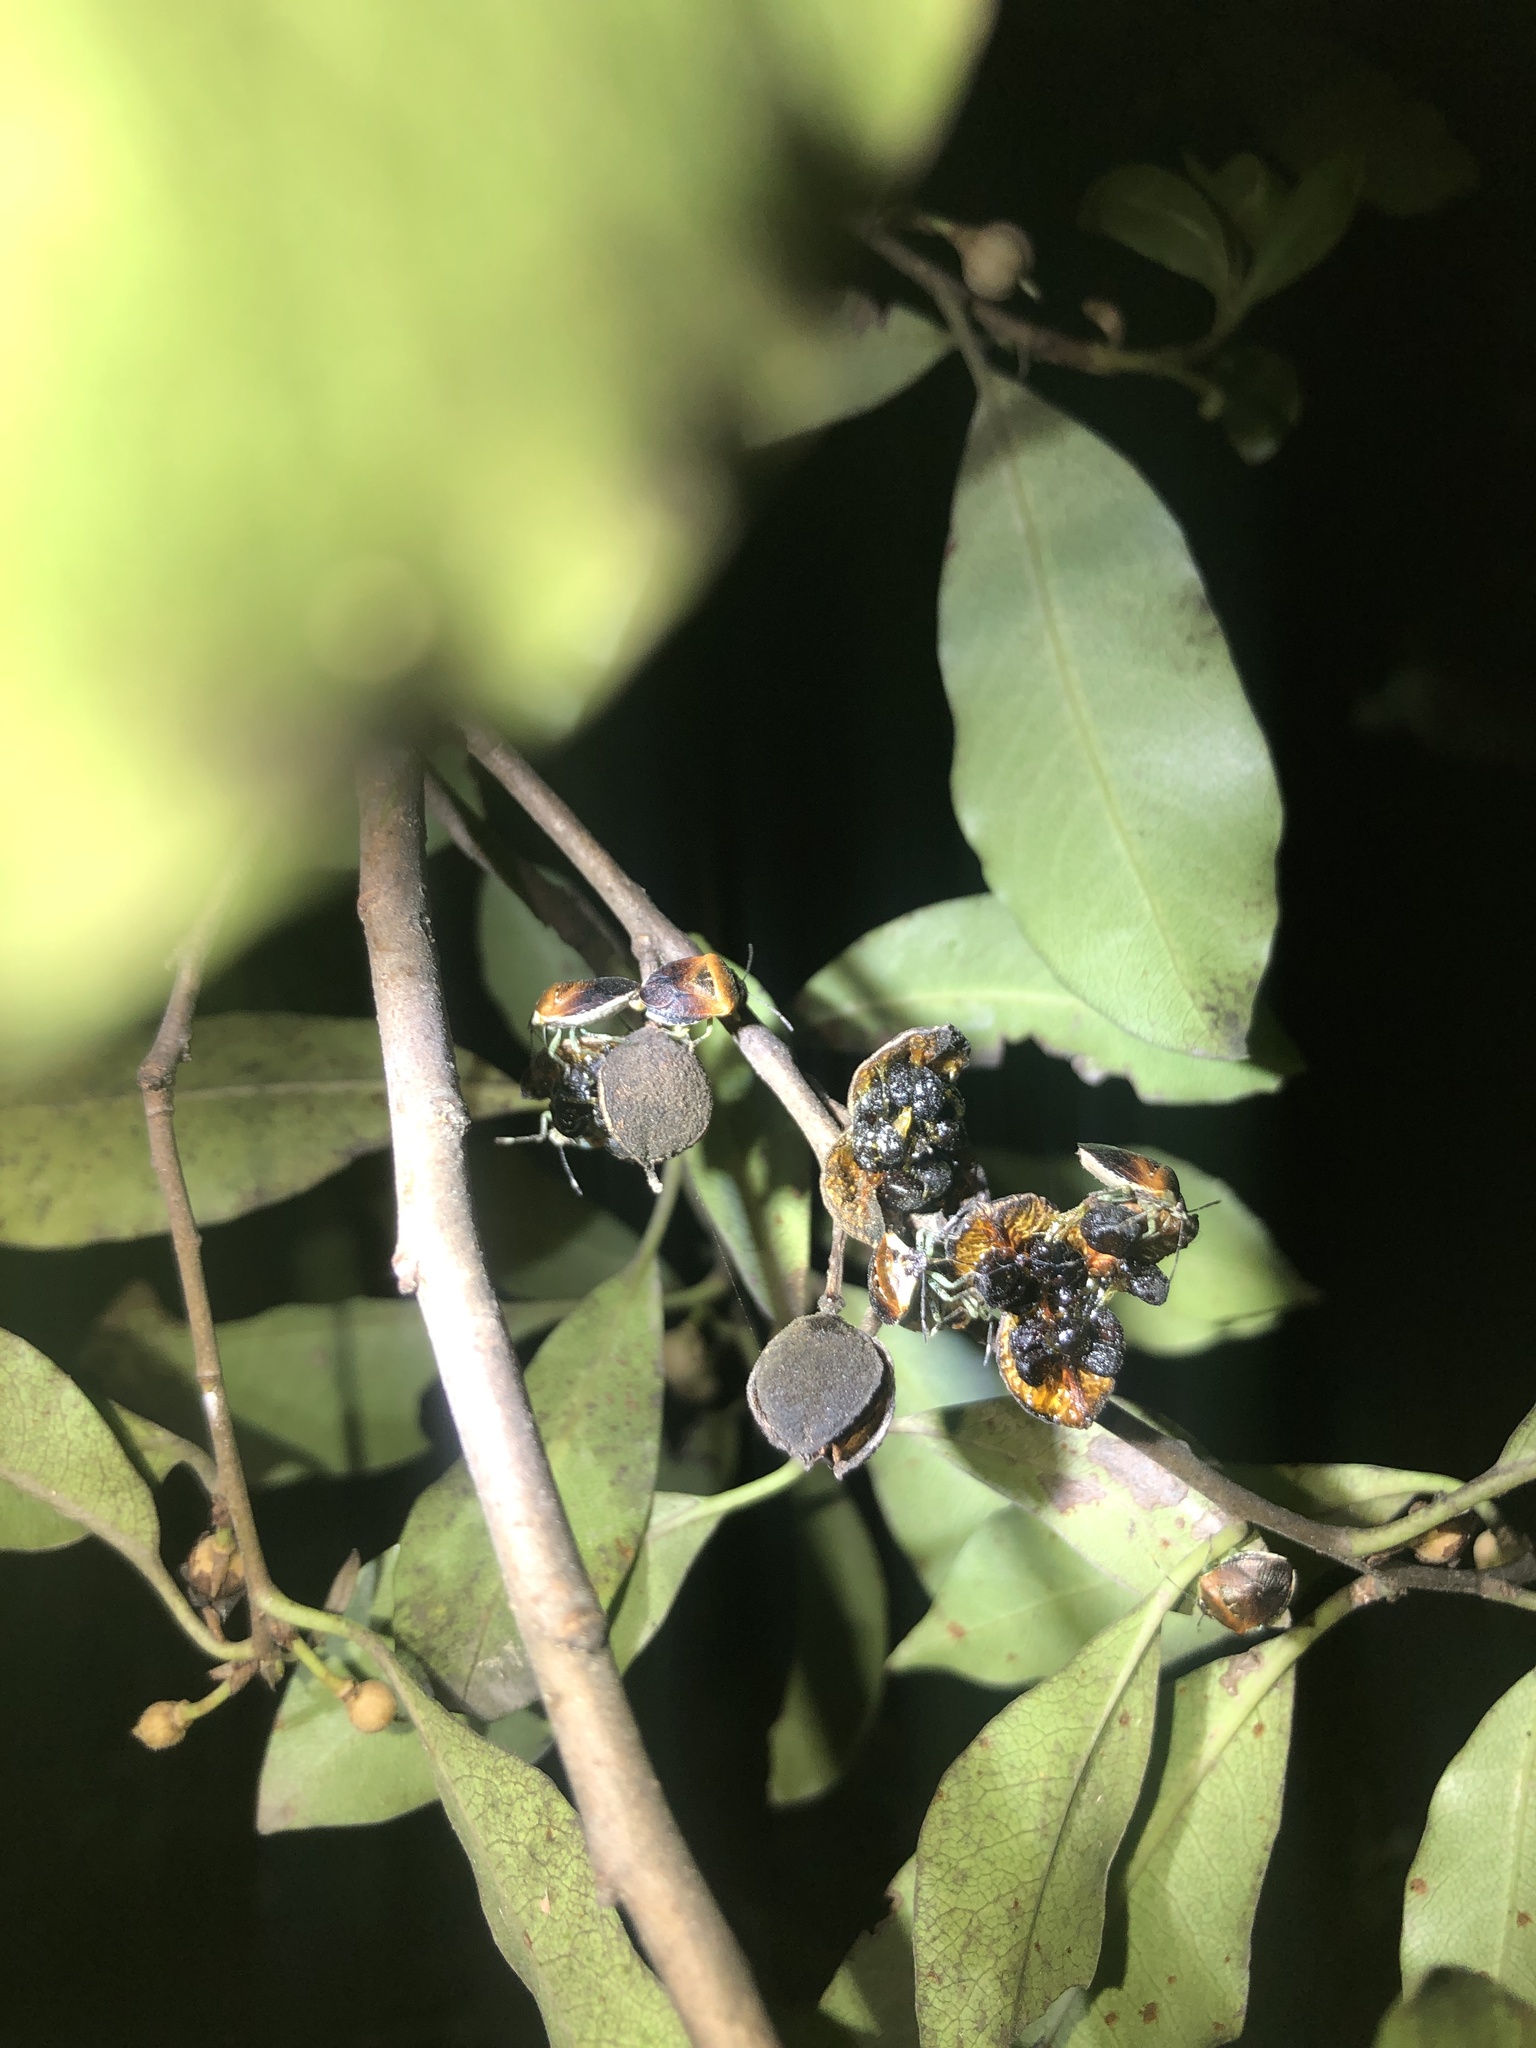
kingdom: Animalia
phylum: Arthropoda
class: Insecta
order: Hemiptera
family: Pentatomidae
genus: Monteithiella
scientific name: Monteithiella
